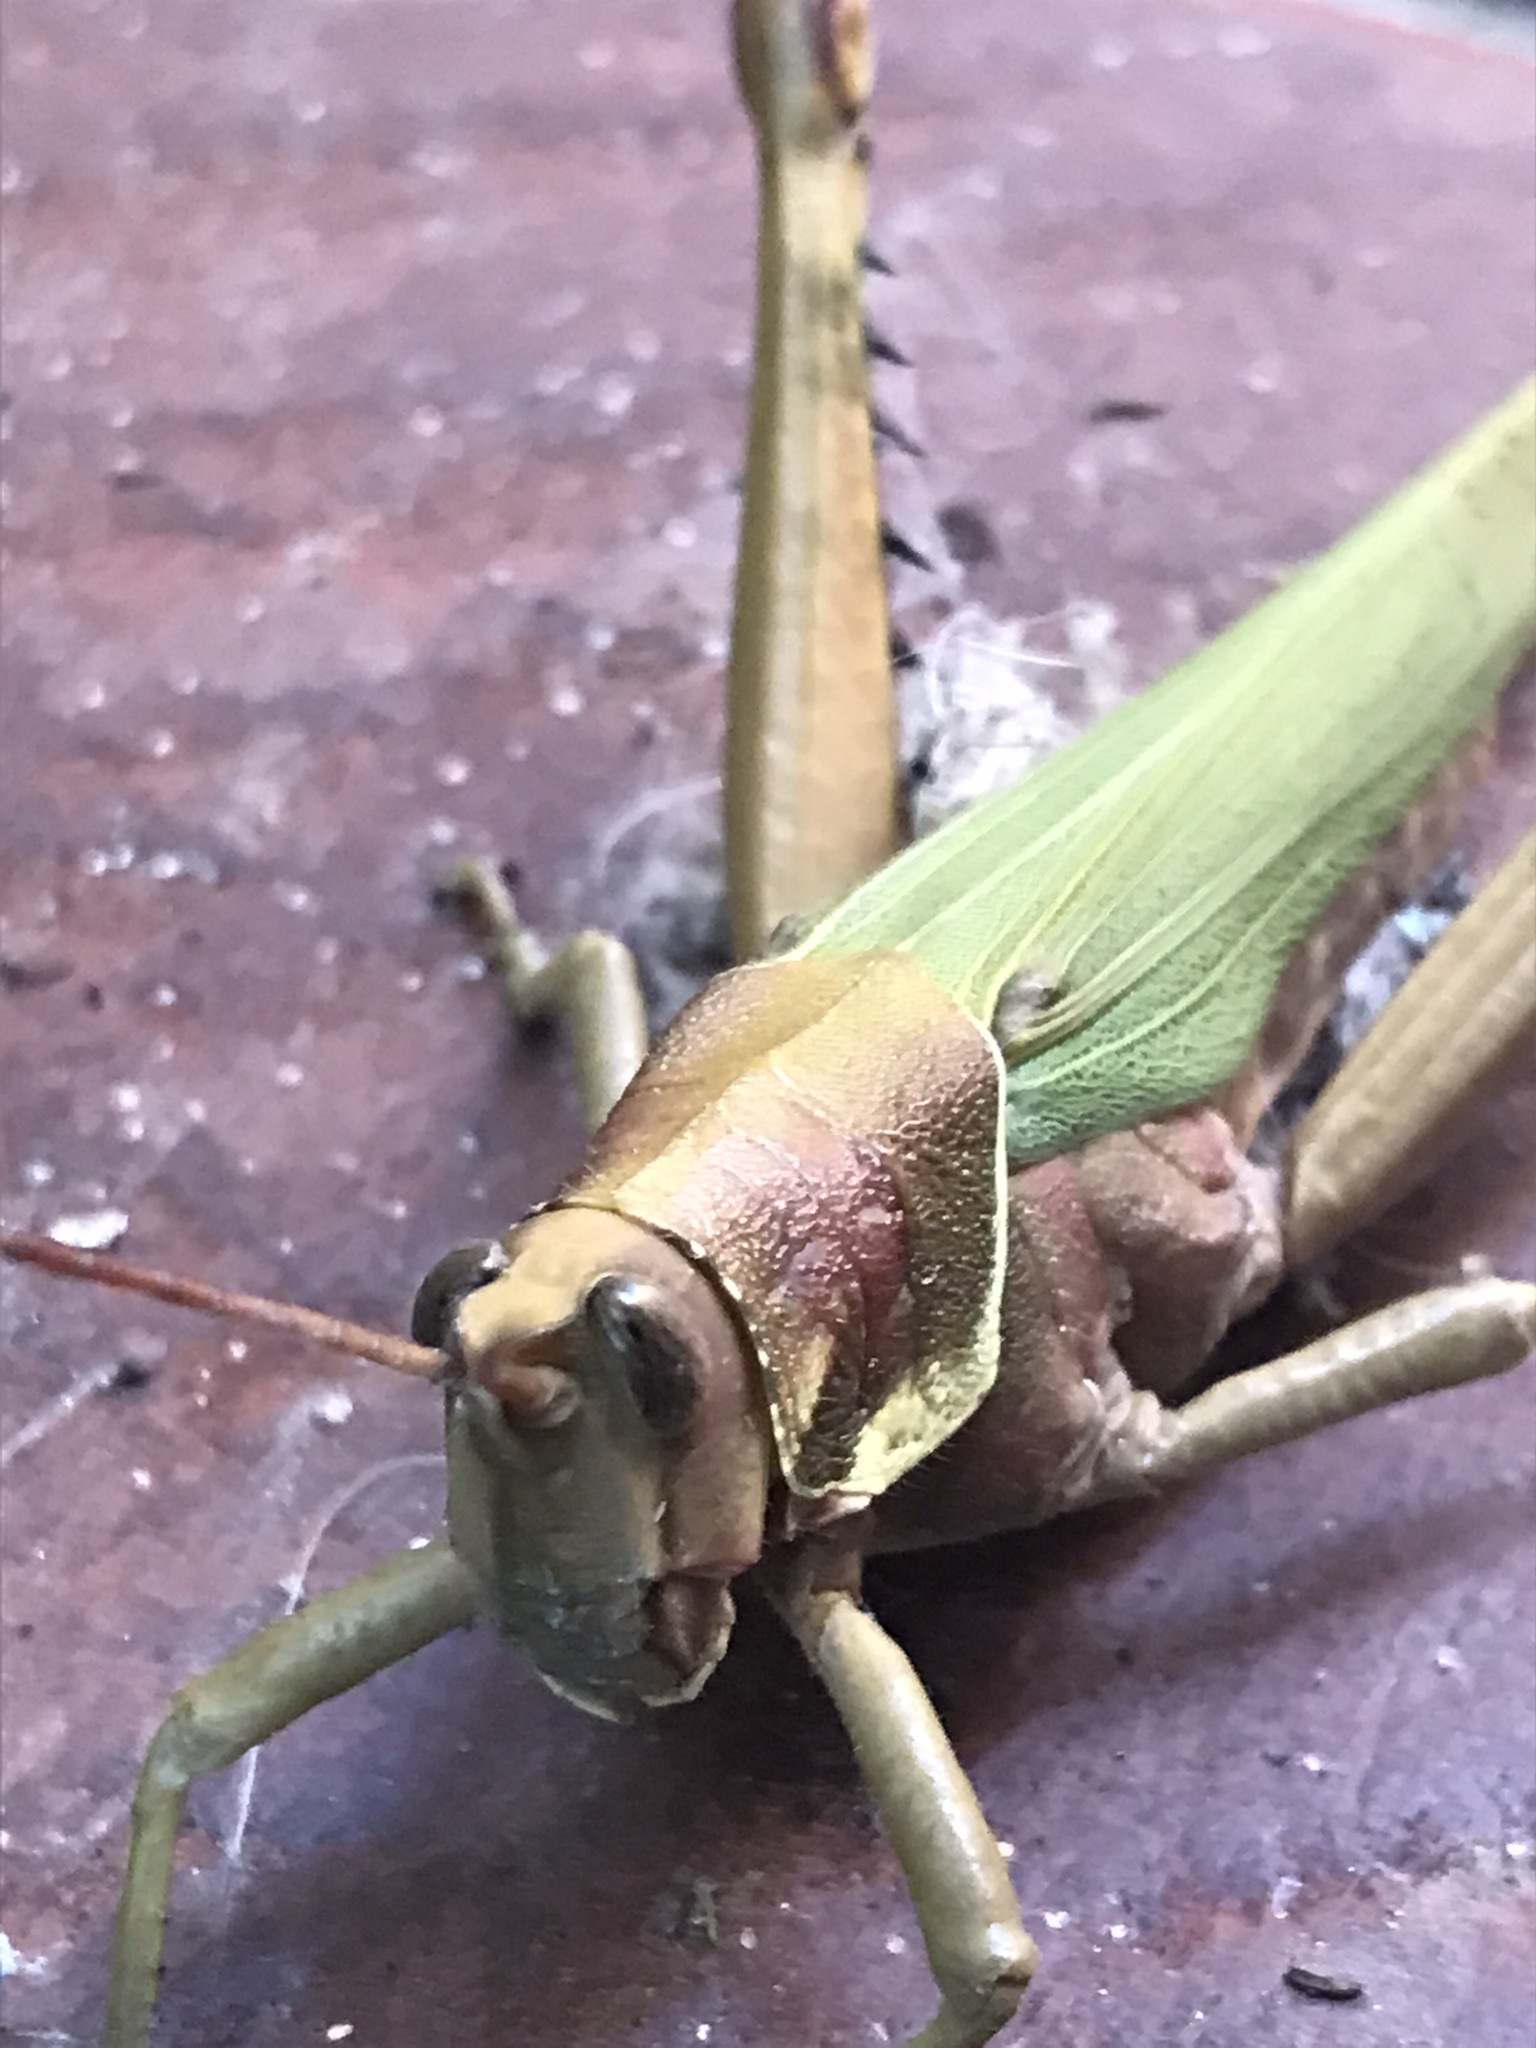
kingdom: Animalia
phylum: Arthropoda
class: Insecta
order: Orthoptera
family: Romaleidae
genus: Coryacris
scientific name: Coryacris angustipennis
